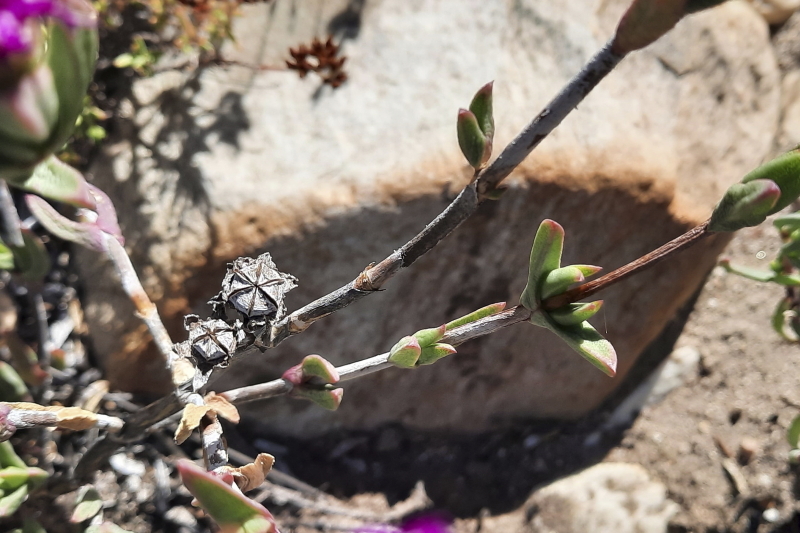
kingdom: Plantae
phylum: Tracheophyta
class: Magnoliopsida
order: Caryophyllales
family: Aizoaceae
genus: Esterhuysenia
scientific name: Esterhuysenia knysnana
